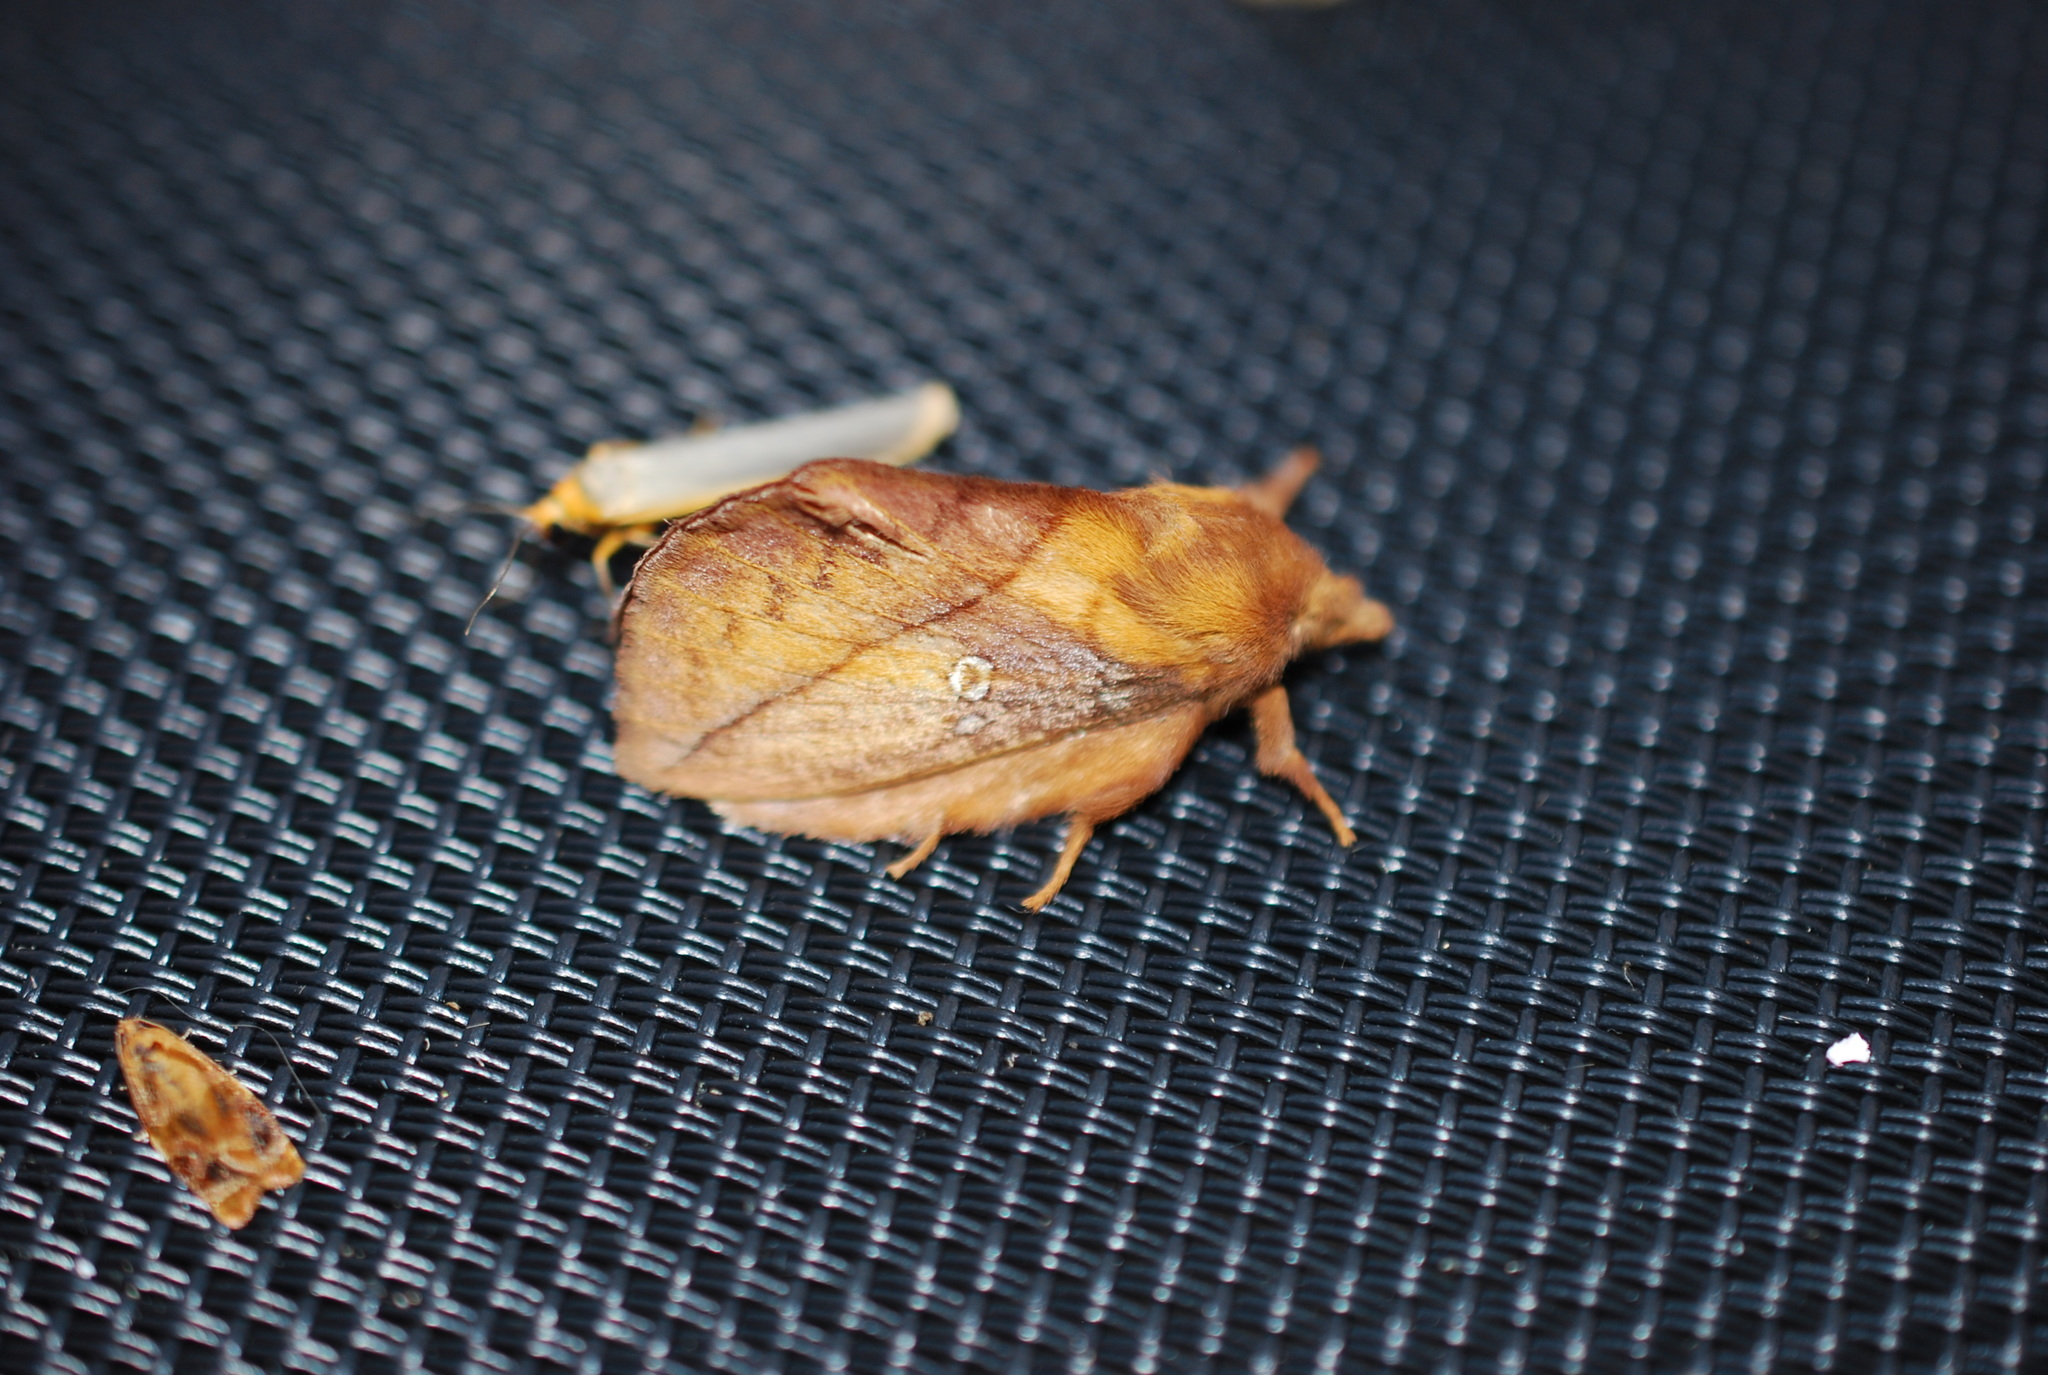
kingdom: Animalia
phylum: Arthropoda
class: Insecta
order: Lepidoptera
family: Lasiocampidae
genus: Euthrix
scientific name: Euthrix potatoria
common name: Drinker
